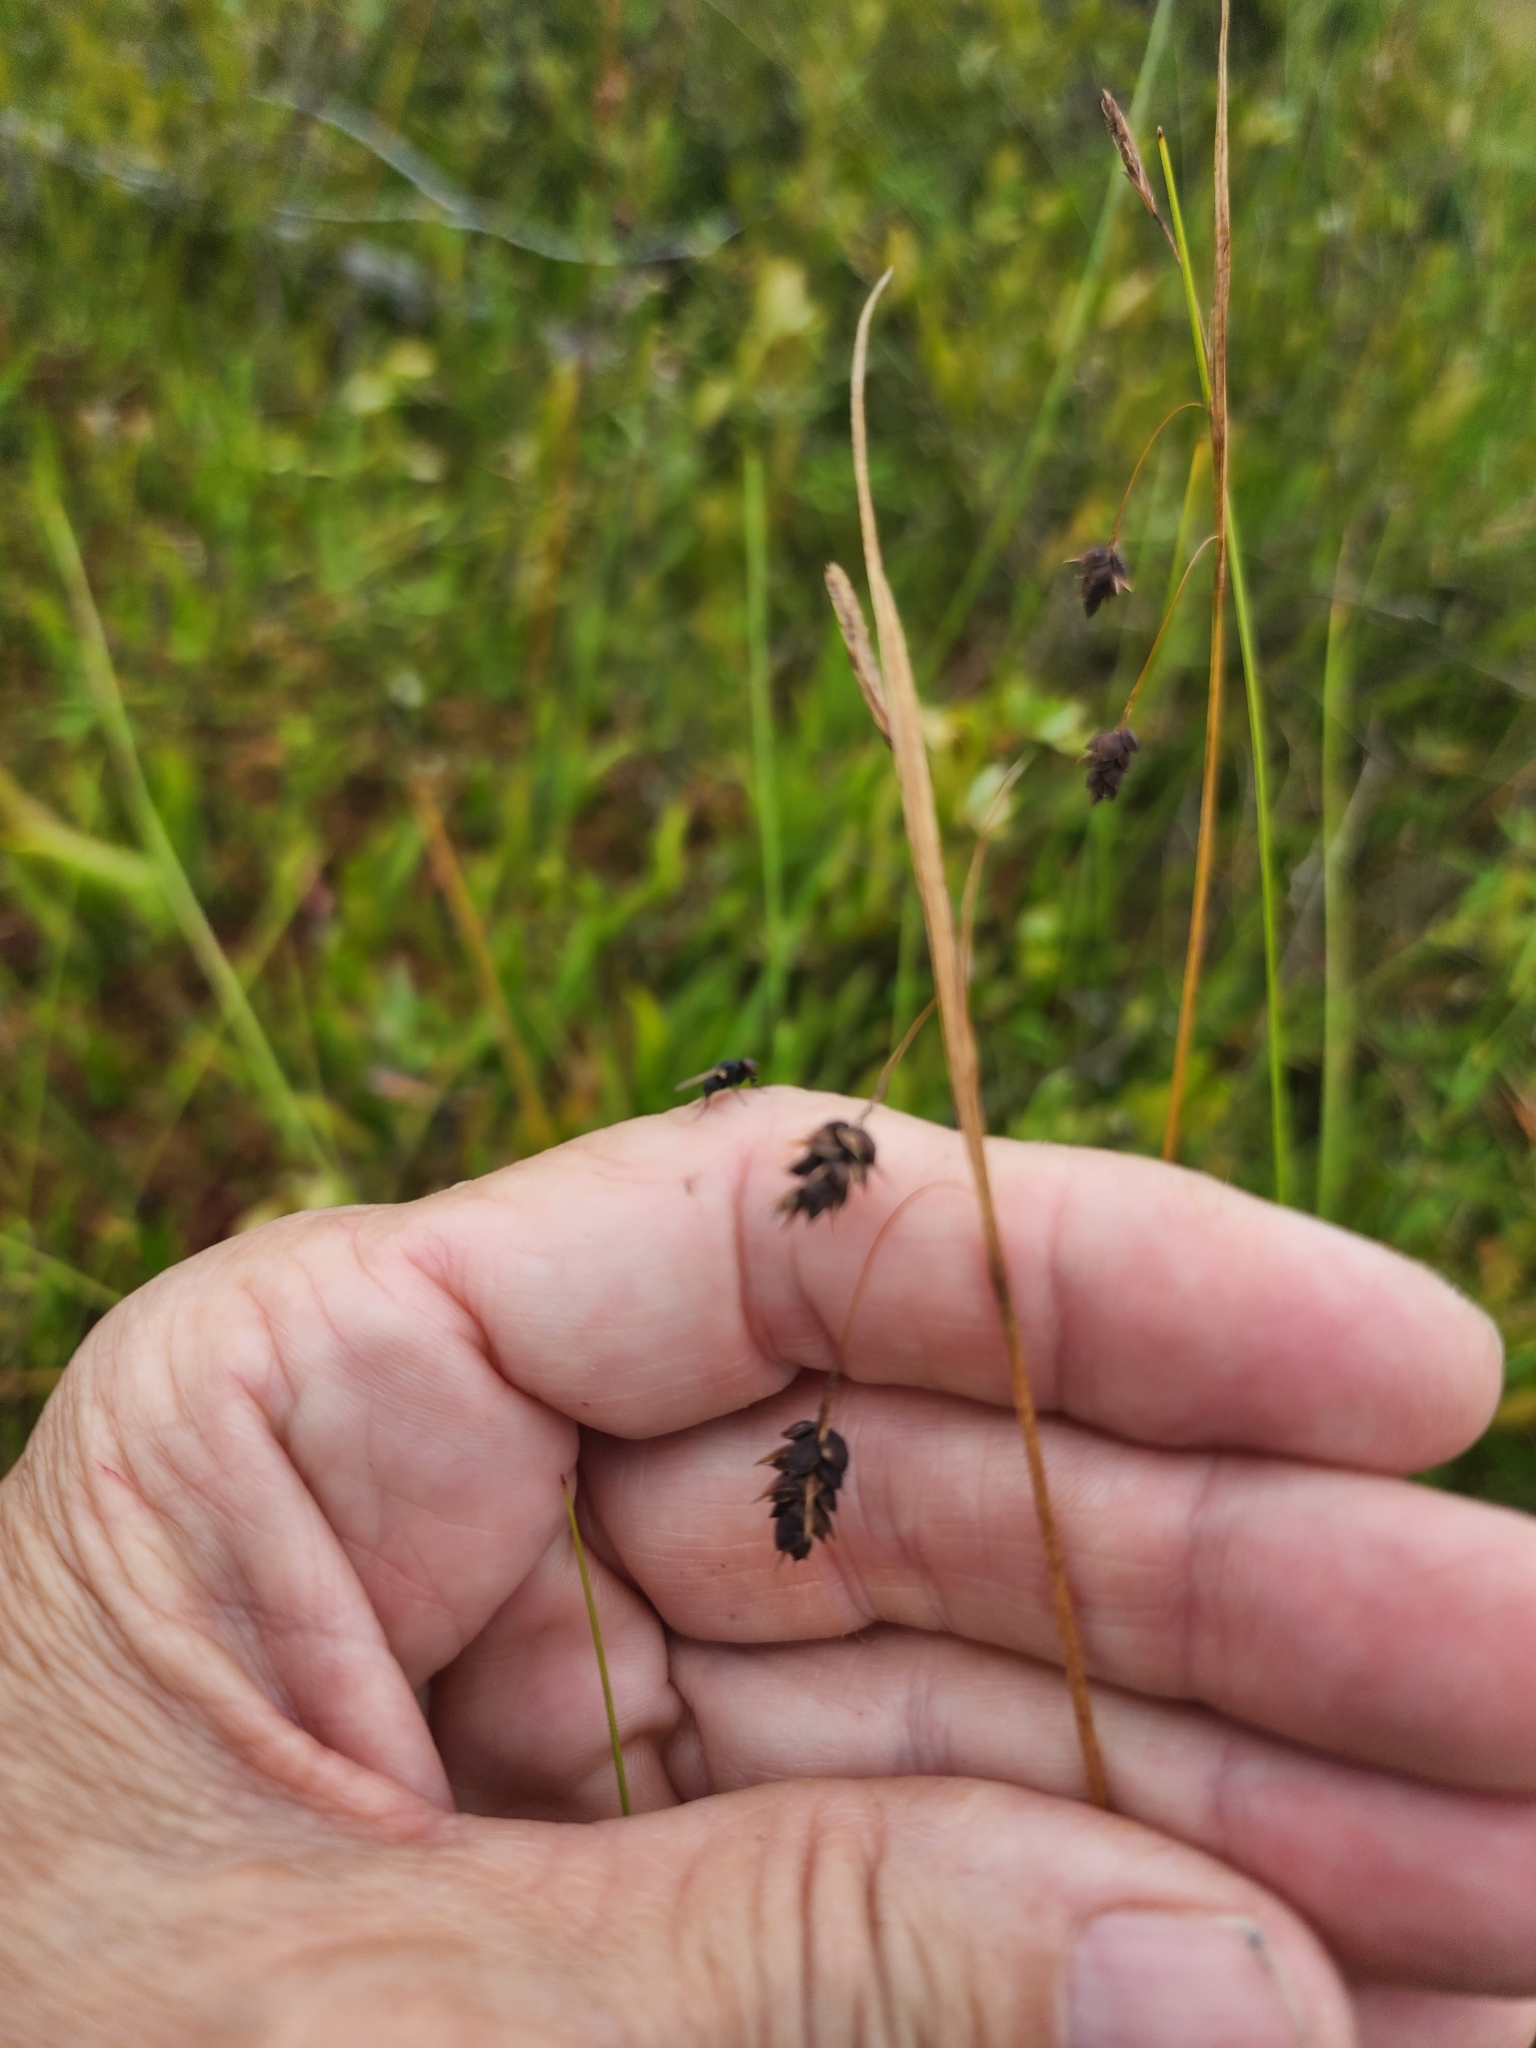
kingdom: Plantae
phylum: Tracheophyta
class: Liliopsida
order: Poales
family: Cyperaceae
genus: Carex
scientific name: Carex magellanica
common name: Bog sedge
